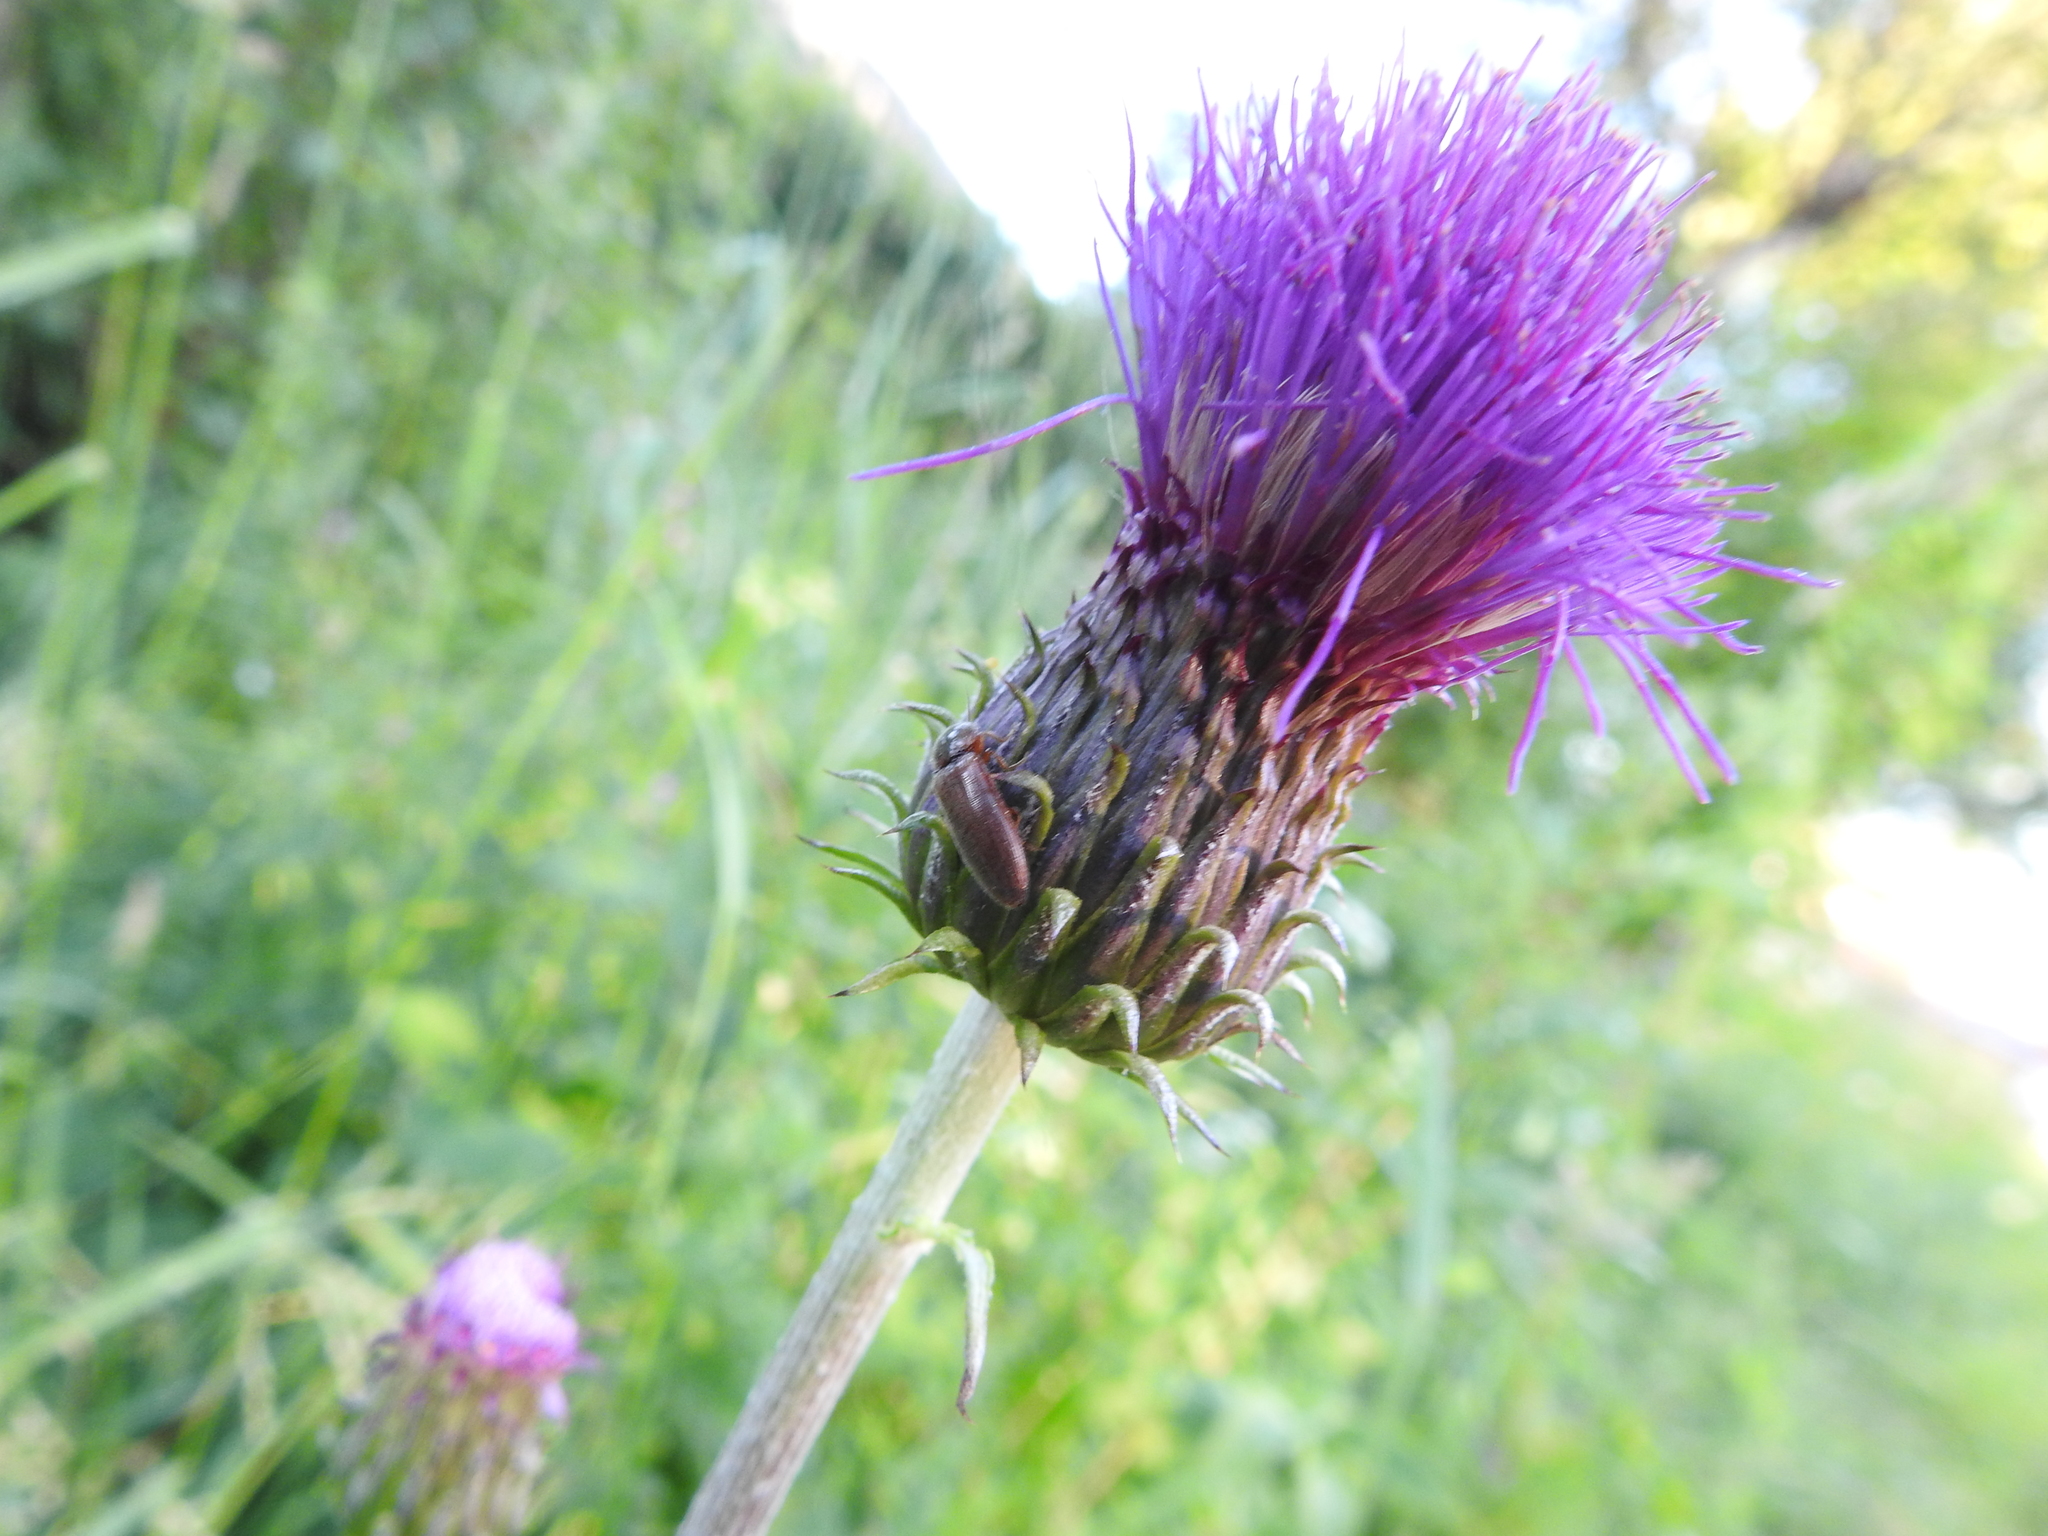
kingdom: Plantae
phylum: Tracheophyta
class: Magnoliopsida
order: Asterales
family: Asteraceae
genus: Cirsium
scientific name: Cirsium heterophyllum
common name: Melancholy thistle
